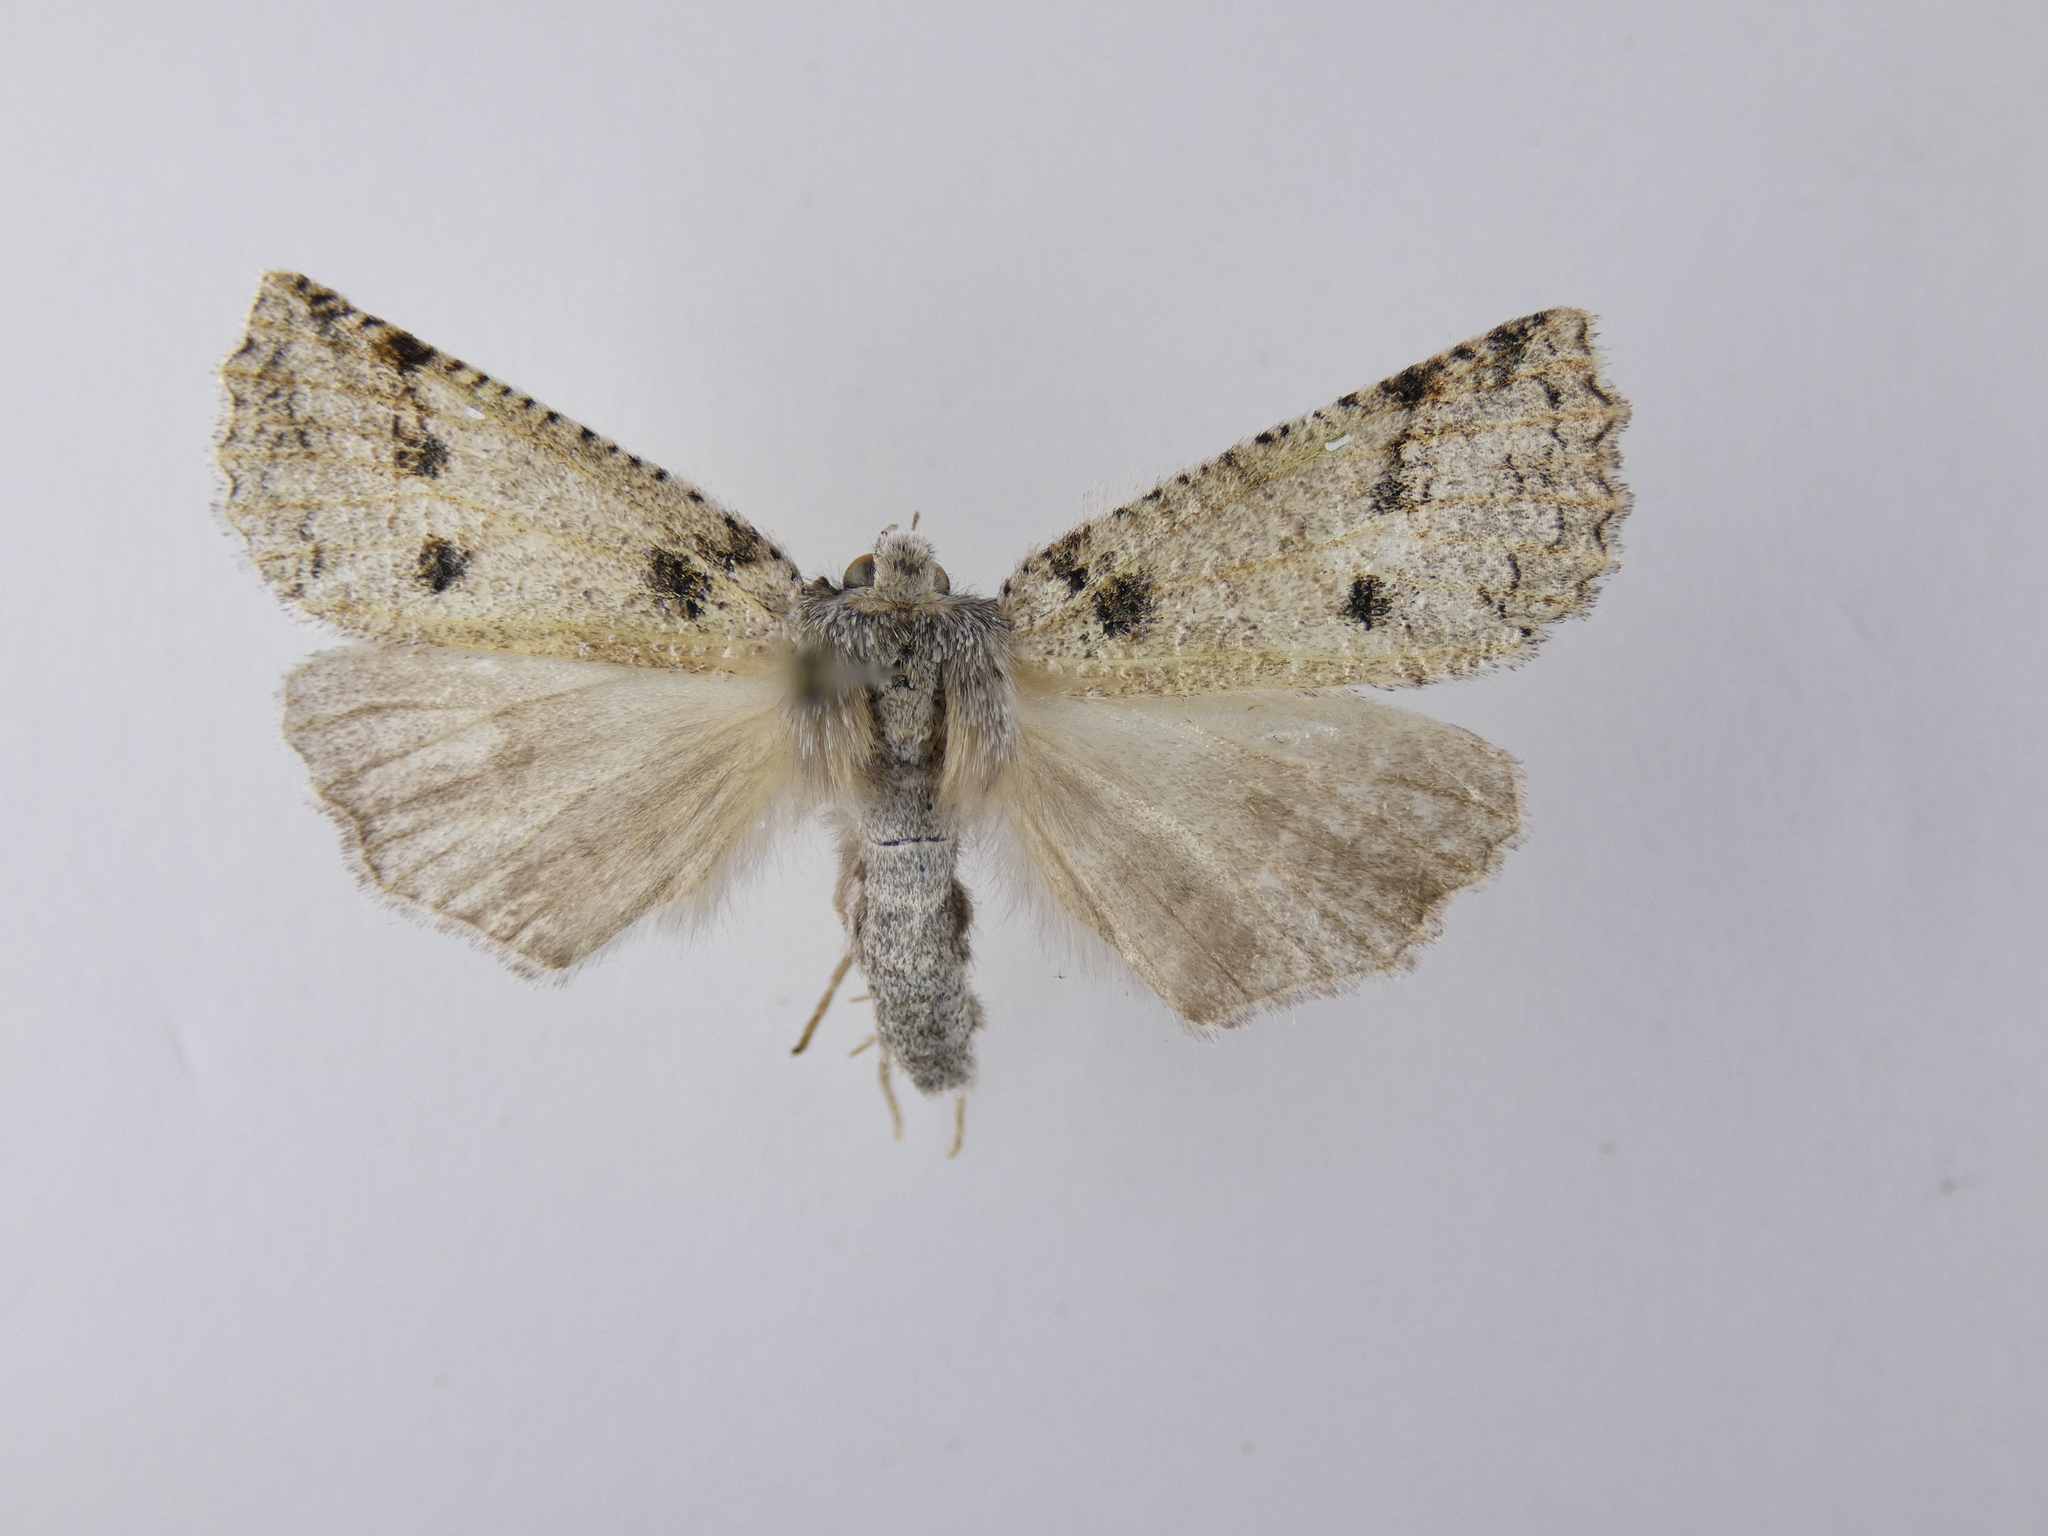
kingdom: Animalia
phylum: Arthropoda
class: Insecta
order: Lepidoptera
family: Geometridae
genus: Declana
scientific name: Declana floccosa
